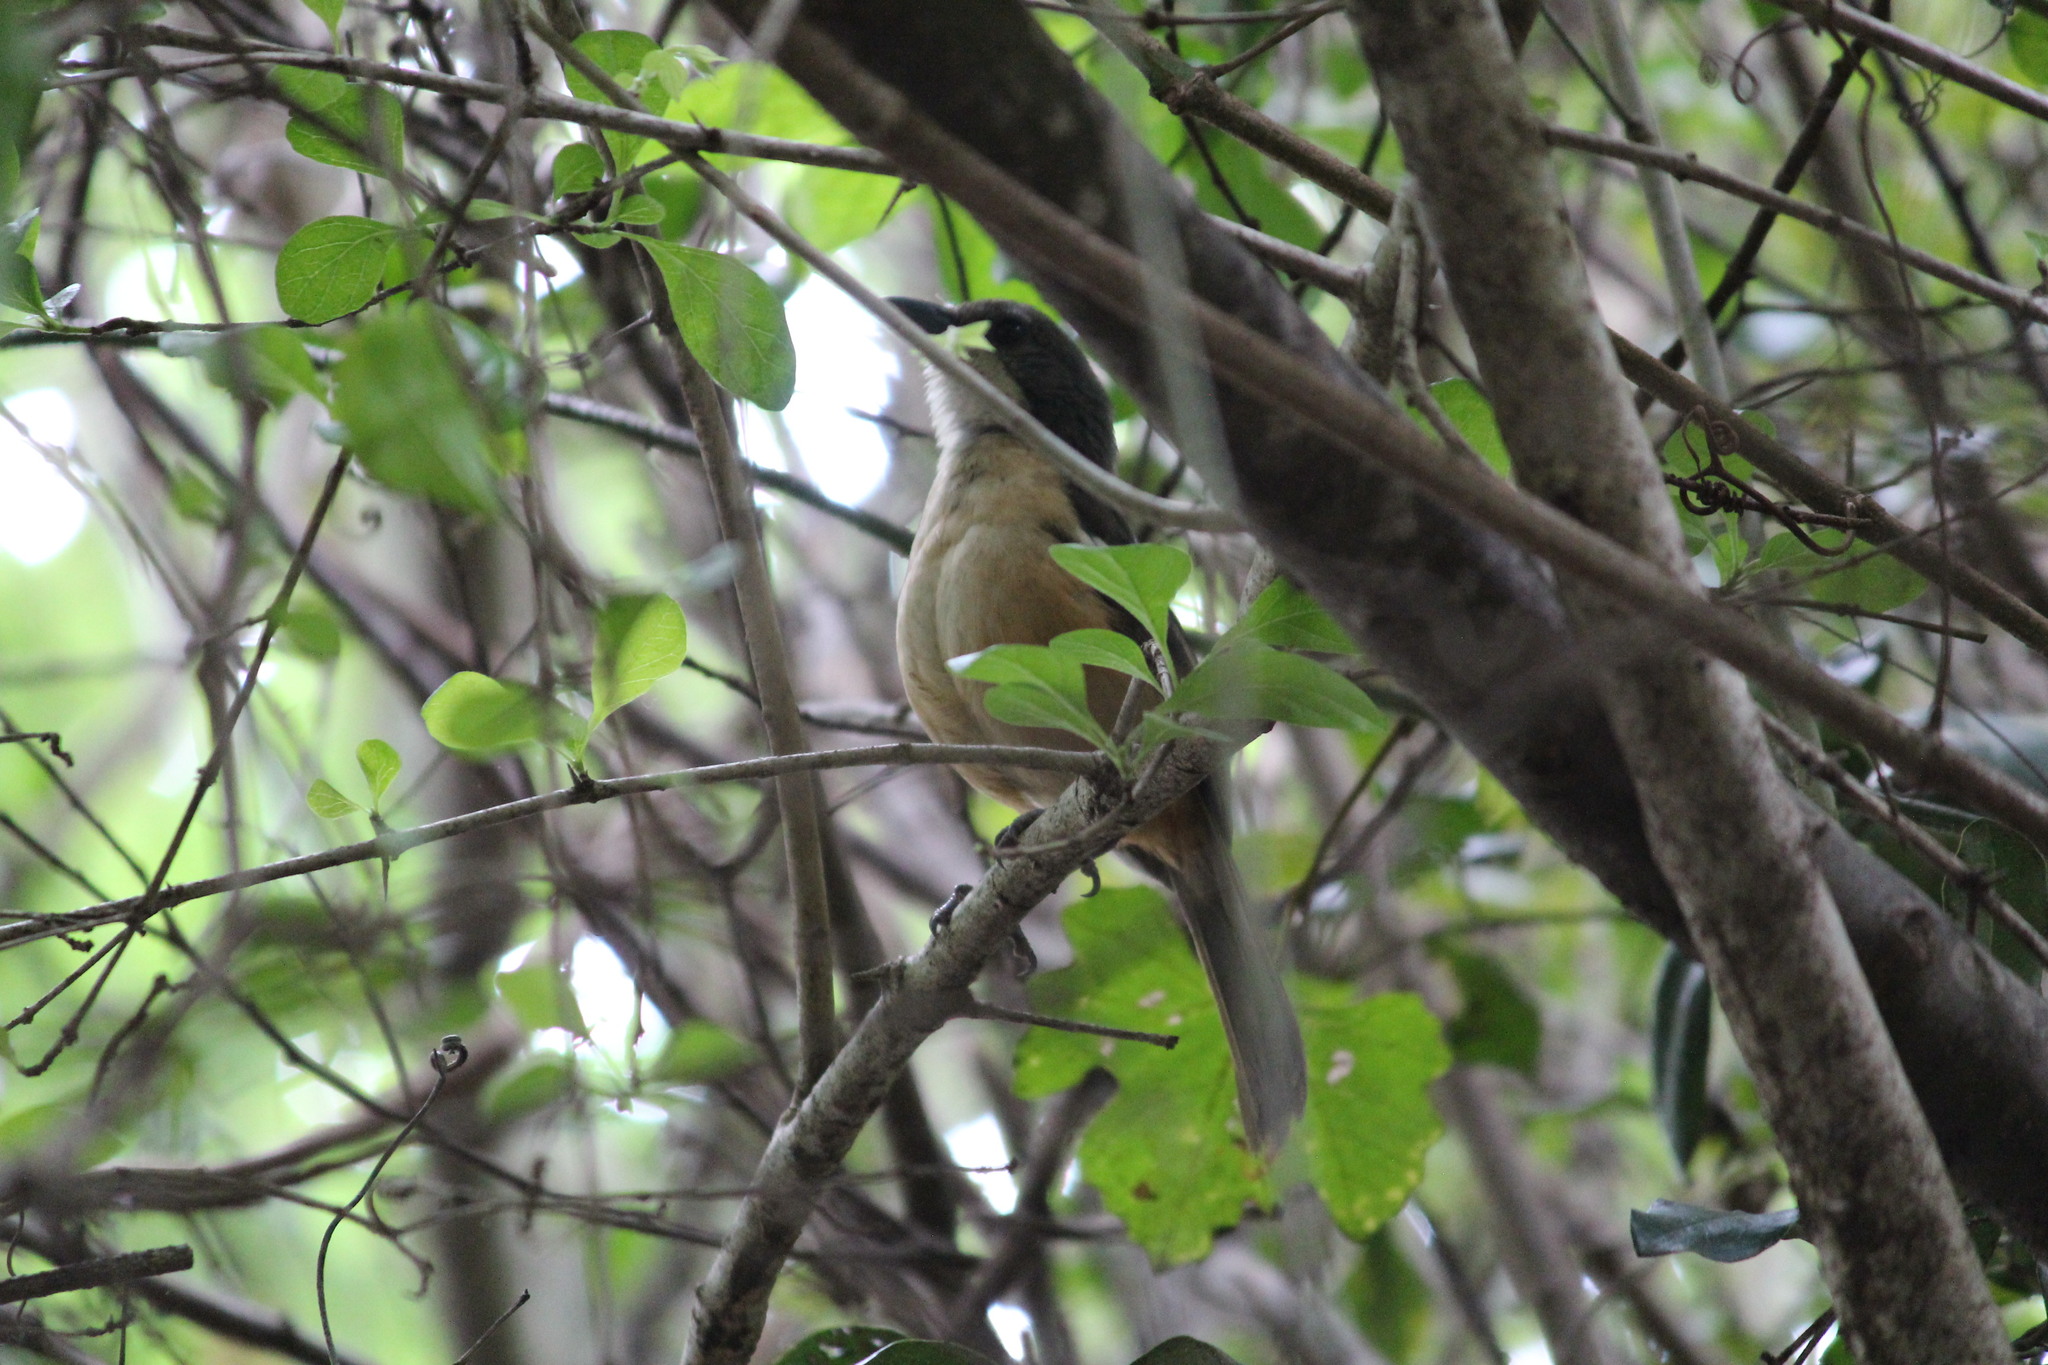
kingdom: Animalia
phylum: Chordata
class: Aves
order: Passeriformes
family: Malaconotidae
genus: Laniarius
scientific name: Laniarius ferrugineus
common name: Southern boubou
